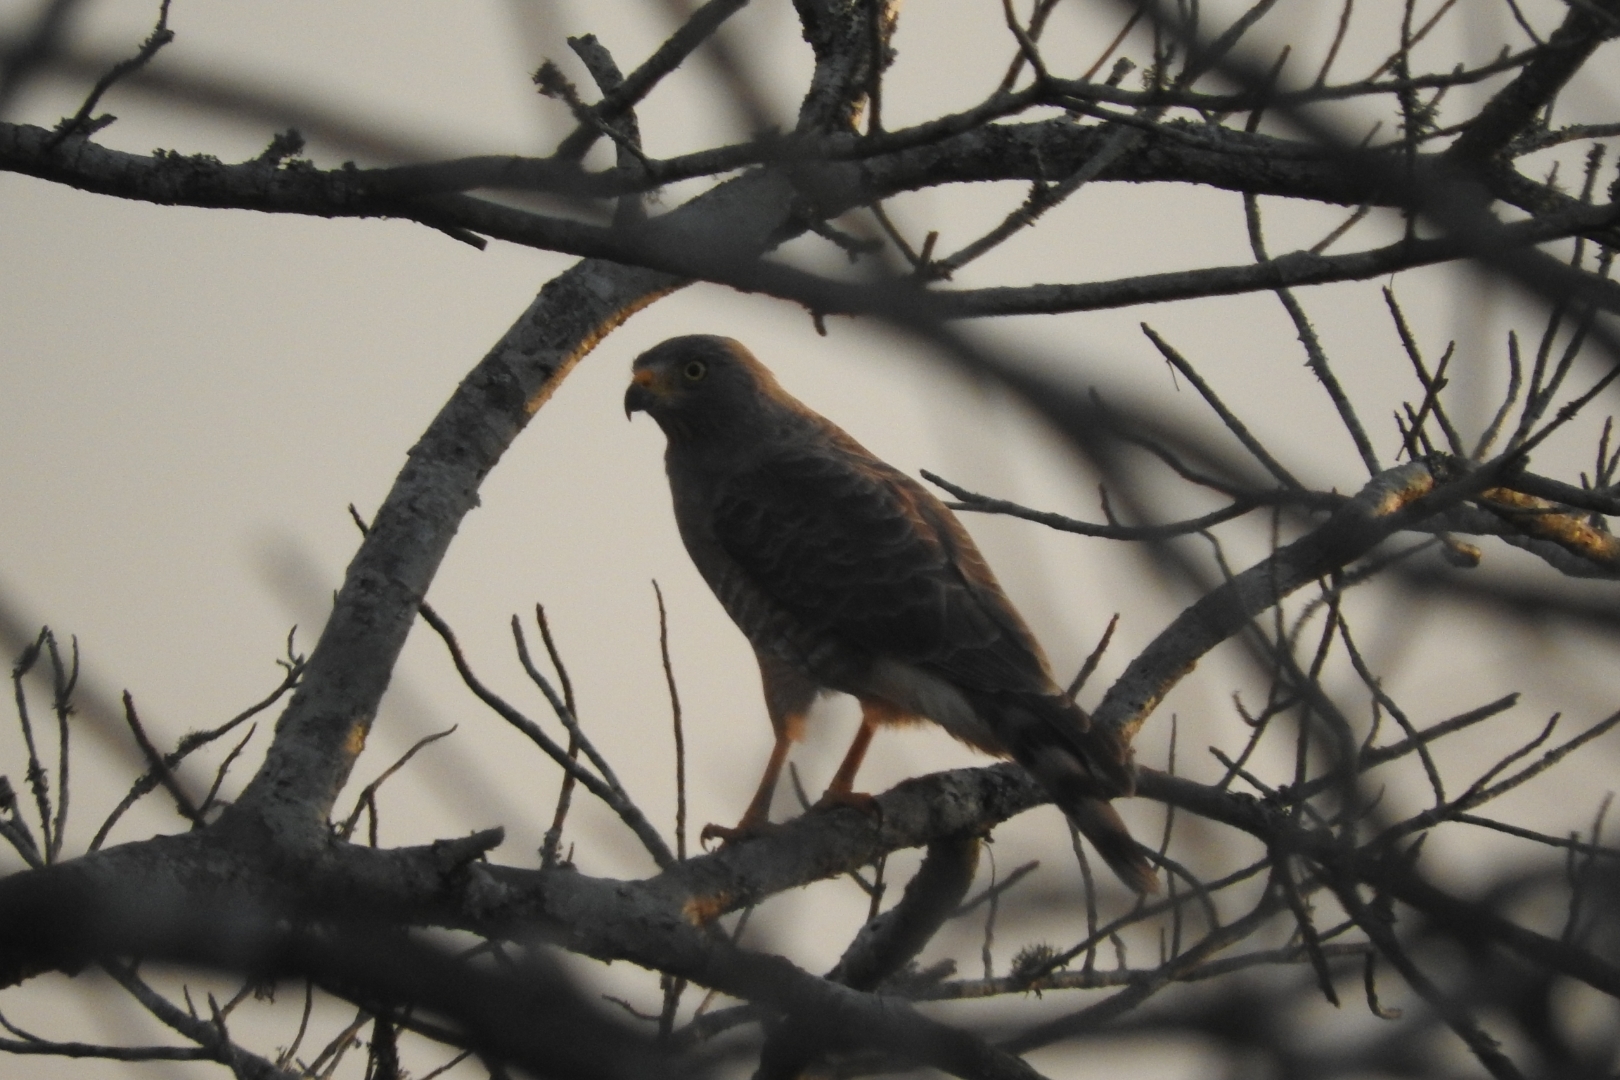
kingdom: Animalia
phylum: Chordata
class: Aves
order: Accipitriformes
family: Accipitridae
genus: Rupornis
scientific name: Rupornis magnirostris
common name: Roadside hawk
